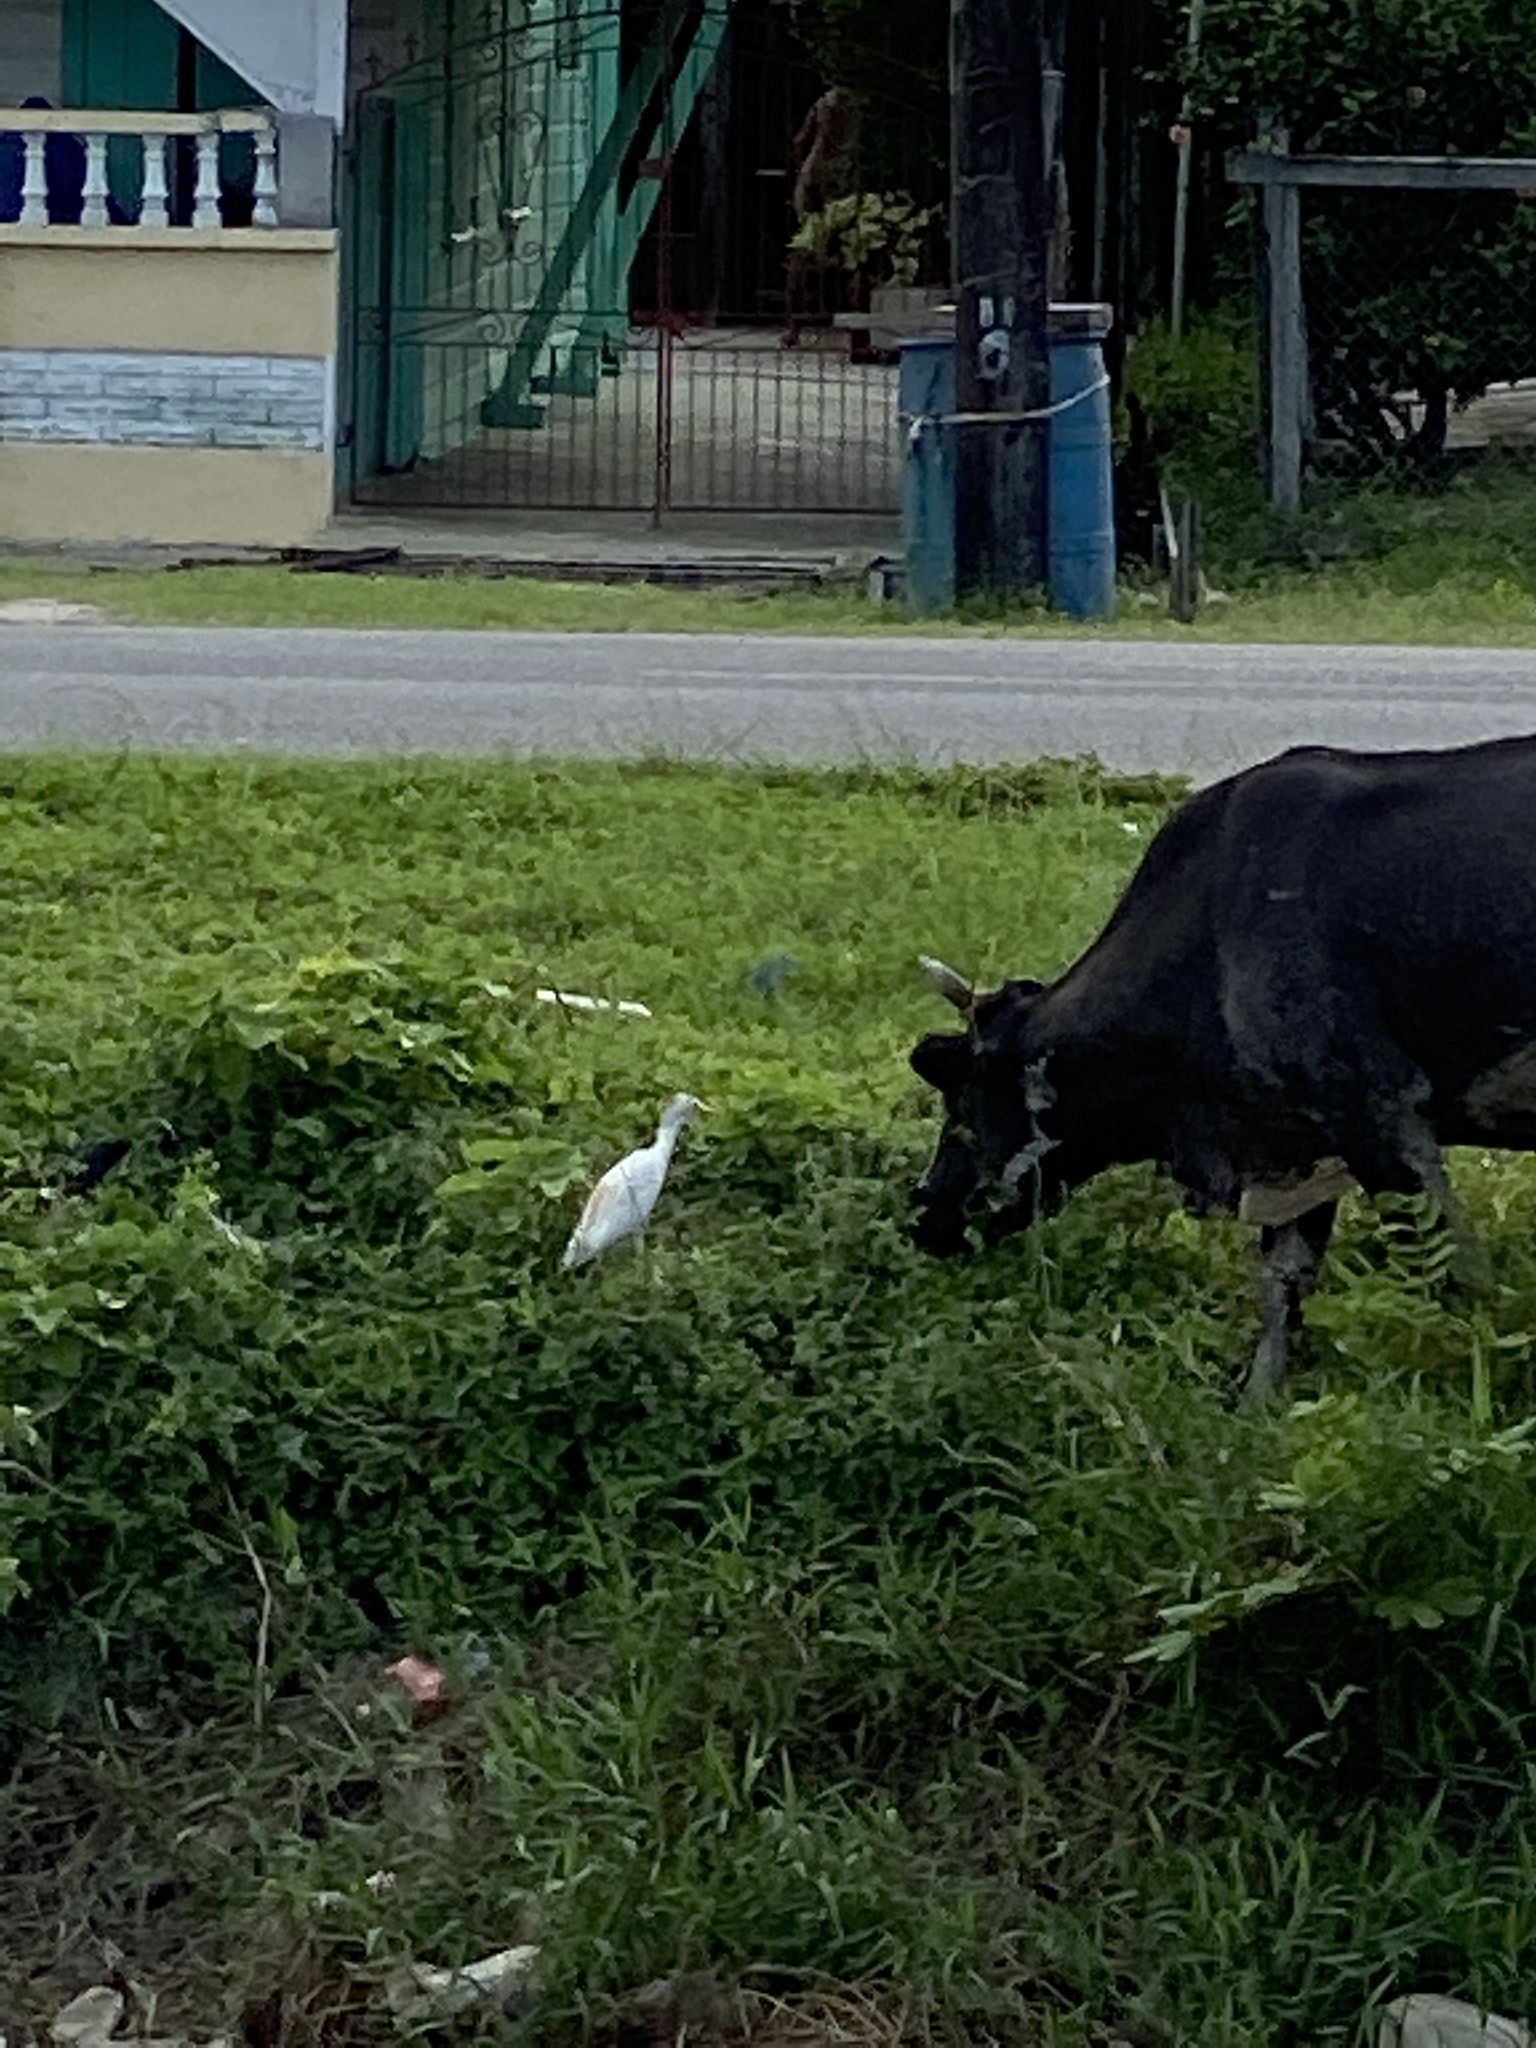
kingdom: Animalia
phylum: Chordata
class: Aves
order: Pelecaniformes
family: Ardeidae
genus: Bubulcus
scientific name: Bubulcus ibis
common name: Cattle egret
